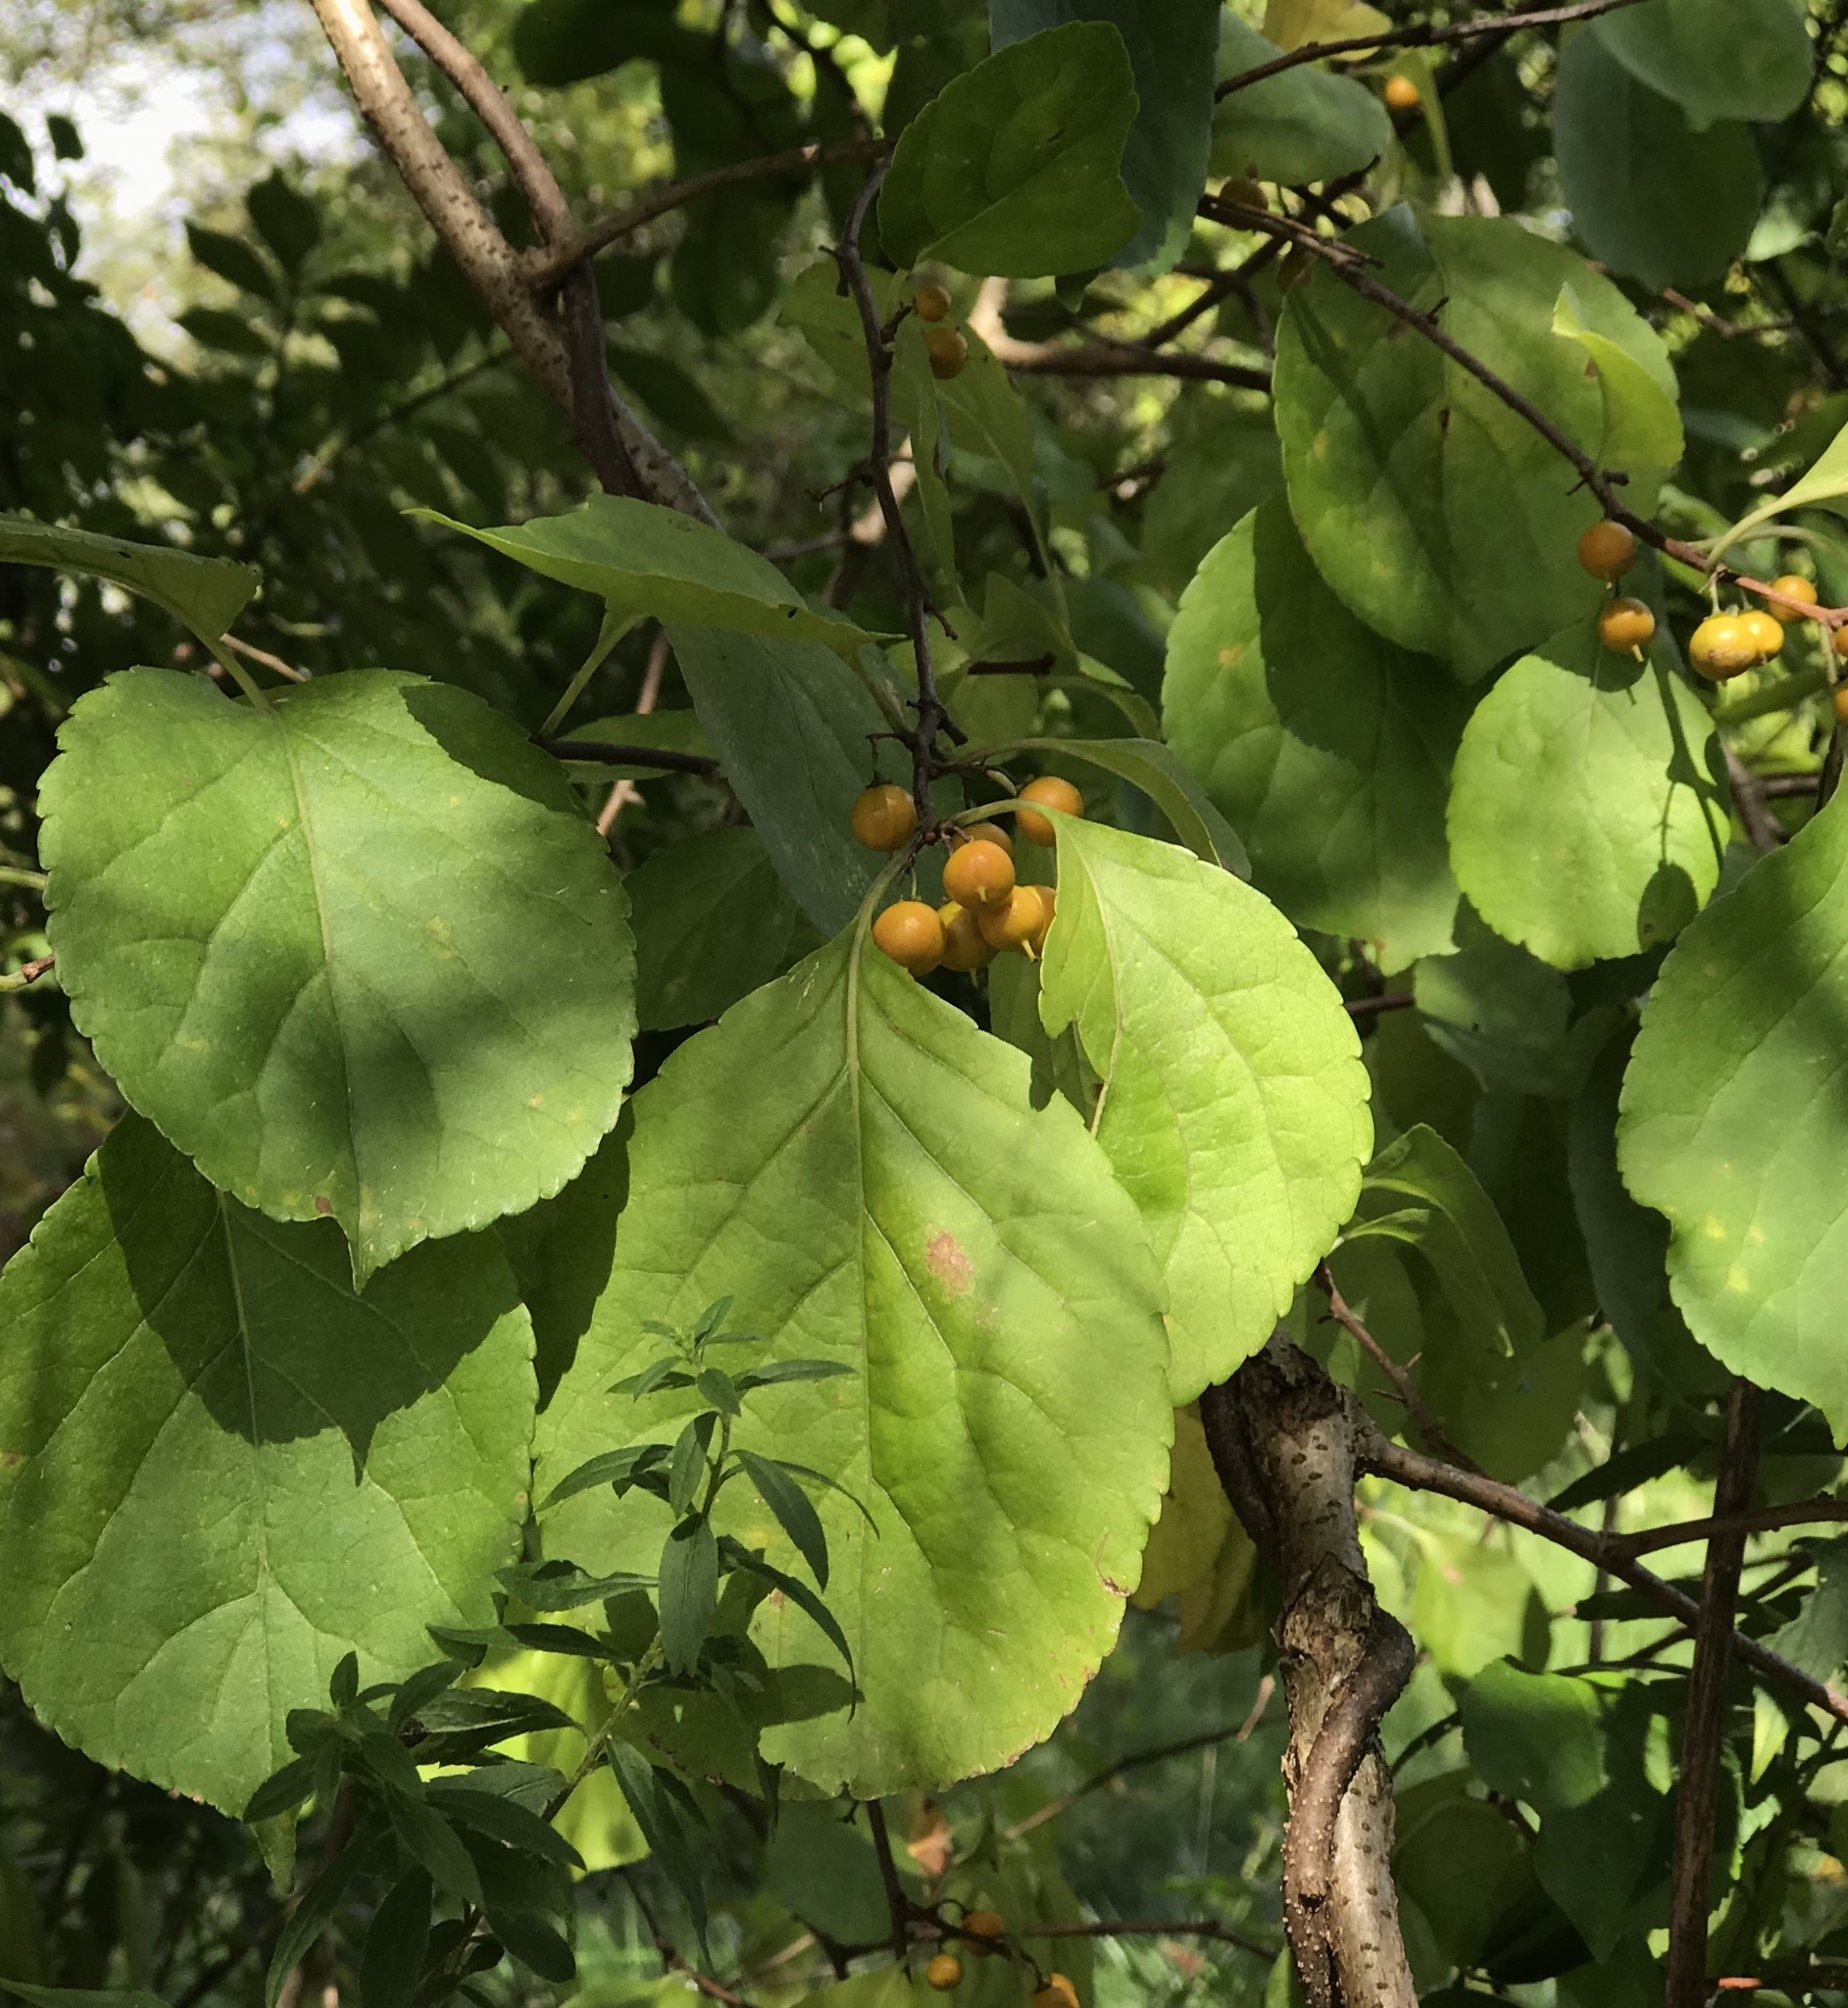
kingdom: Plantae
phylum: Tracheophyta
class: Magnoliopsida
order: Celastrales
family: Celastraceae
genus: Celastrus
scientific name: Celastrus orbiculatus
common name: Oriental bittersweet
